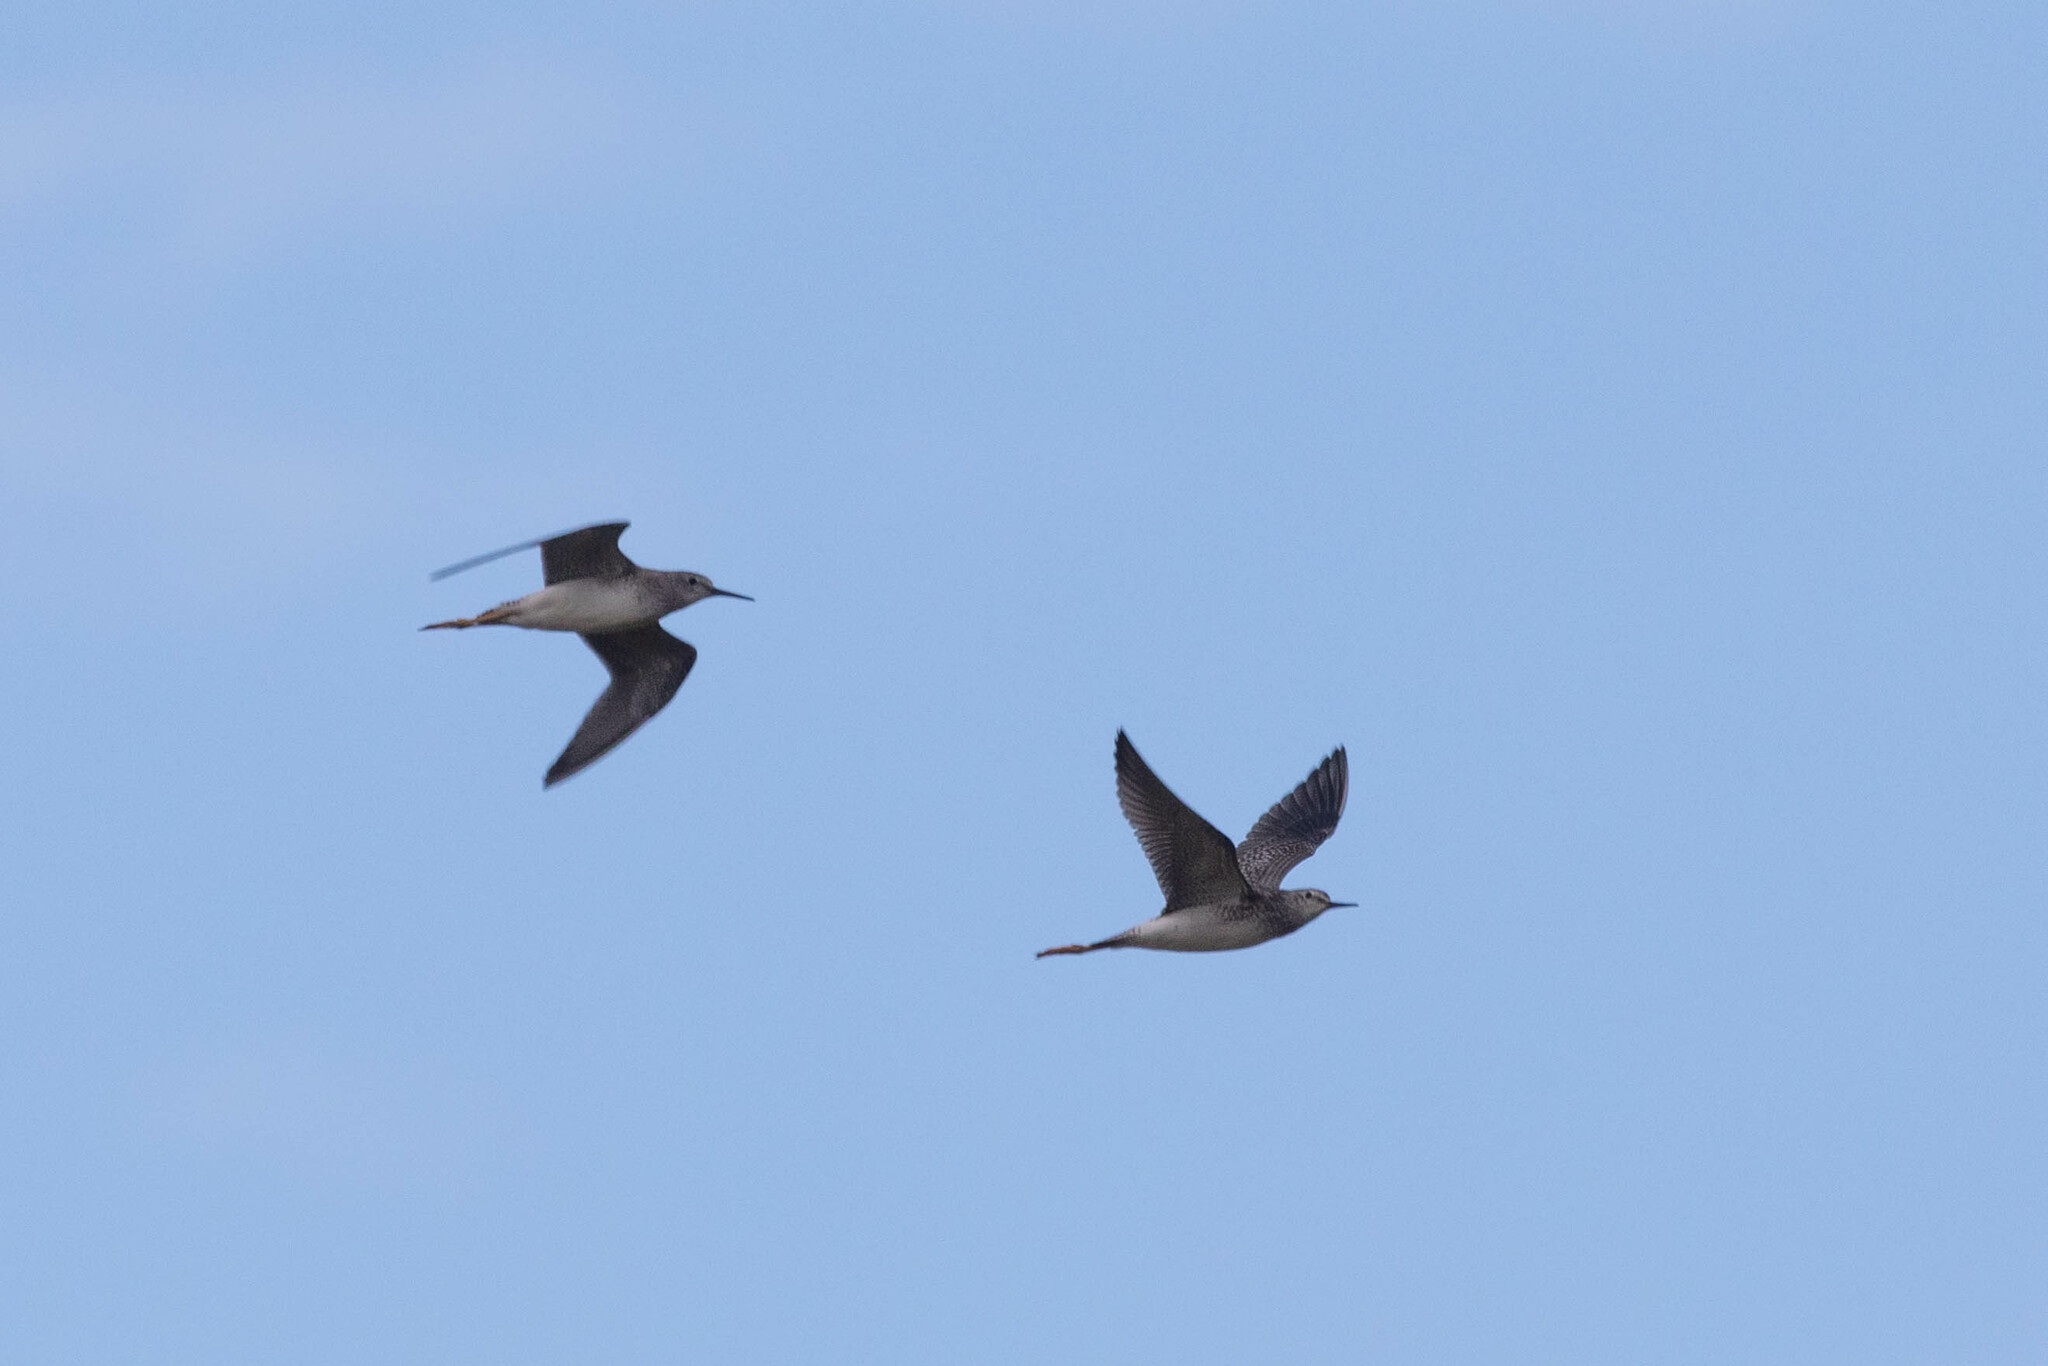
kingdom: Animalia
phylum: Chordata
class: Aves
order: Charadriiformes
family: Scolopacidae
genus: Tringa
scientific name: Tringa flavipes
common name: Lesser yellowlegs
